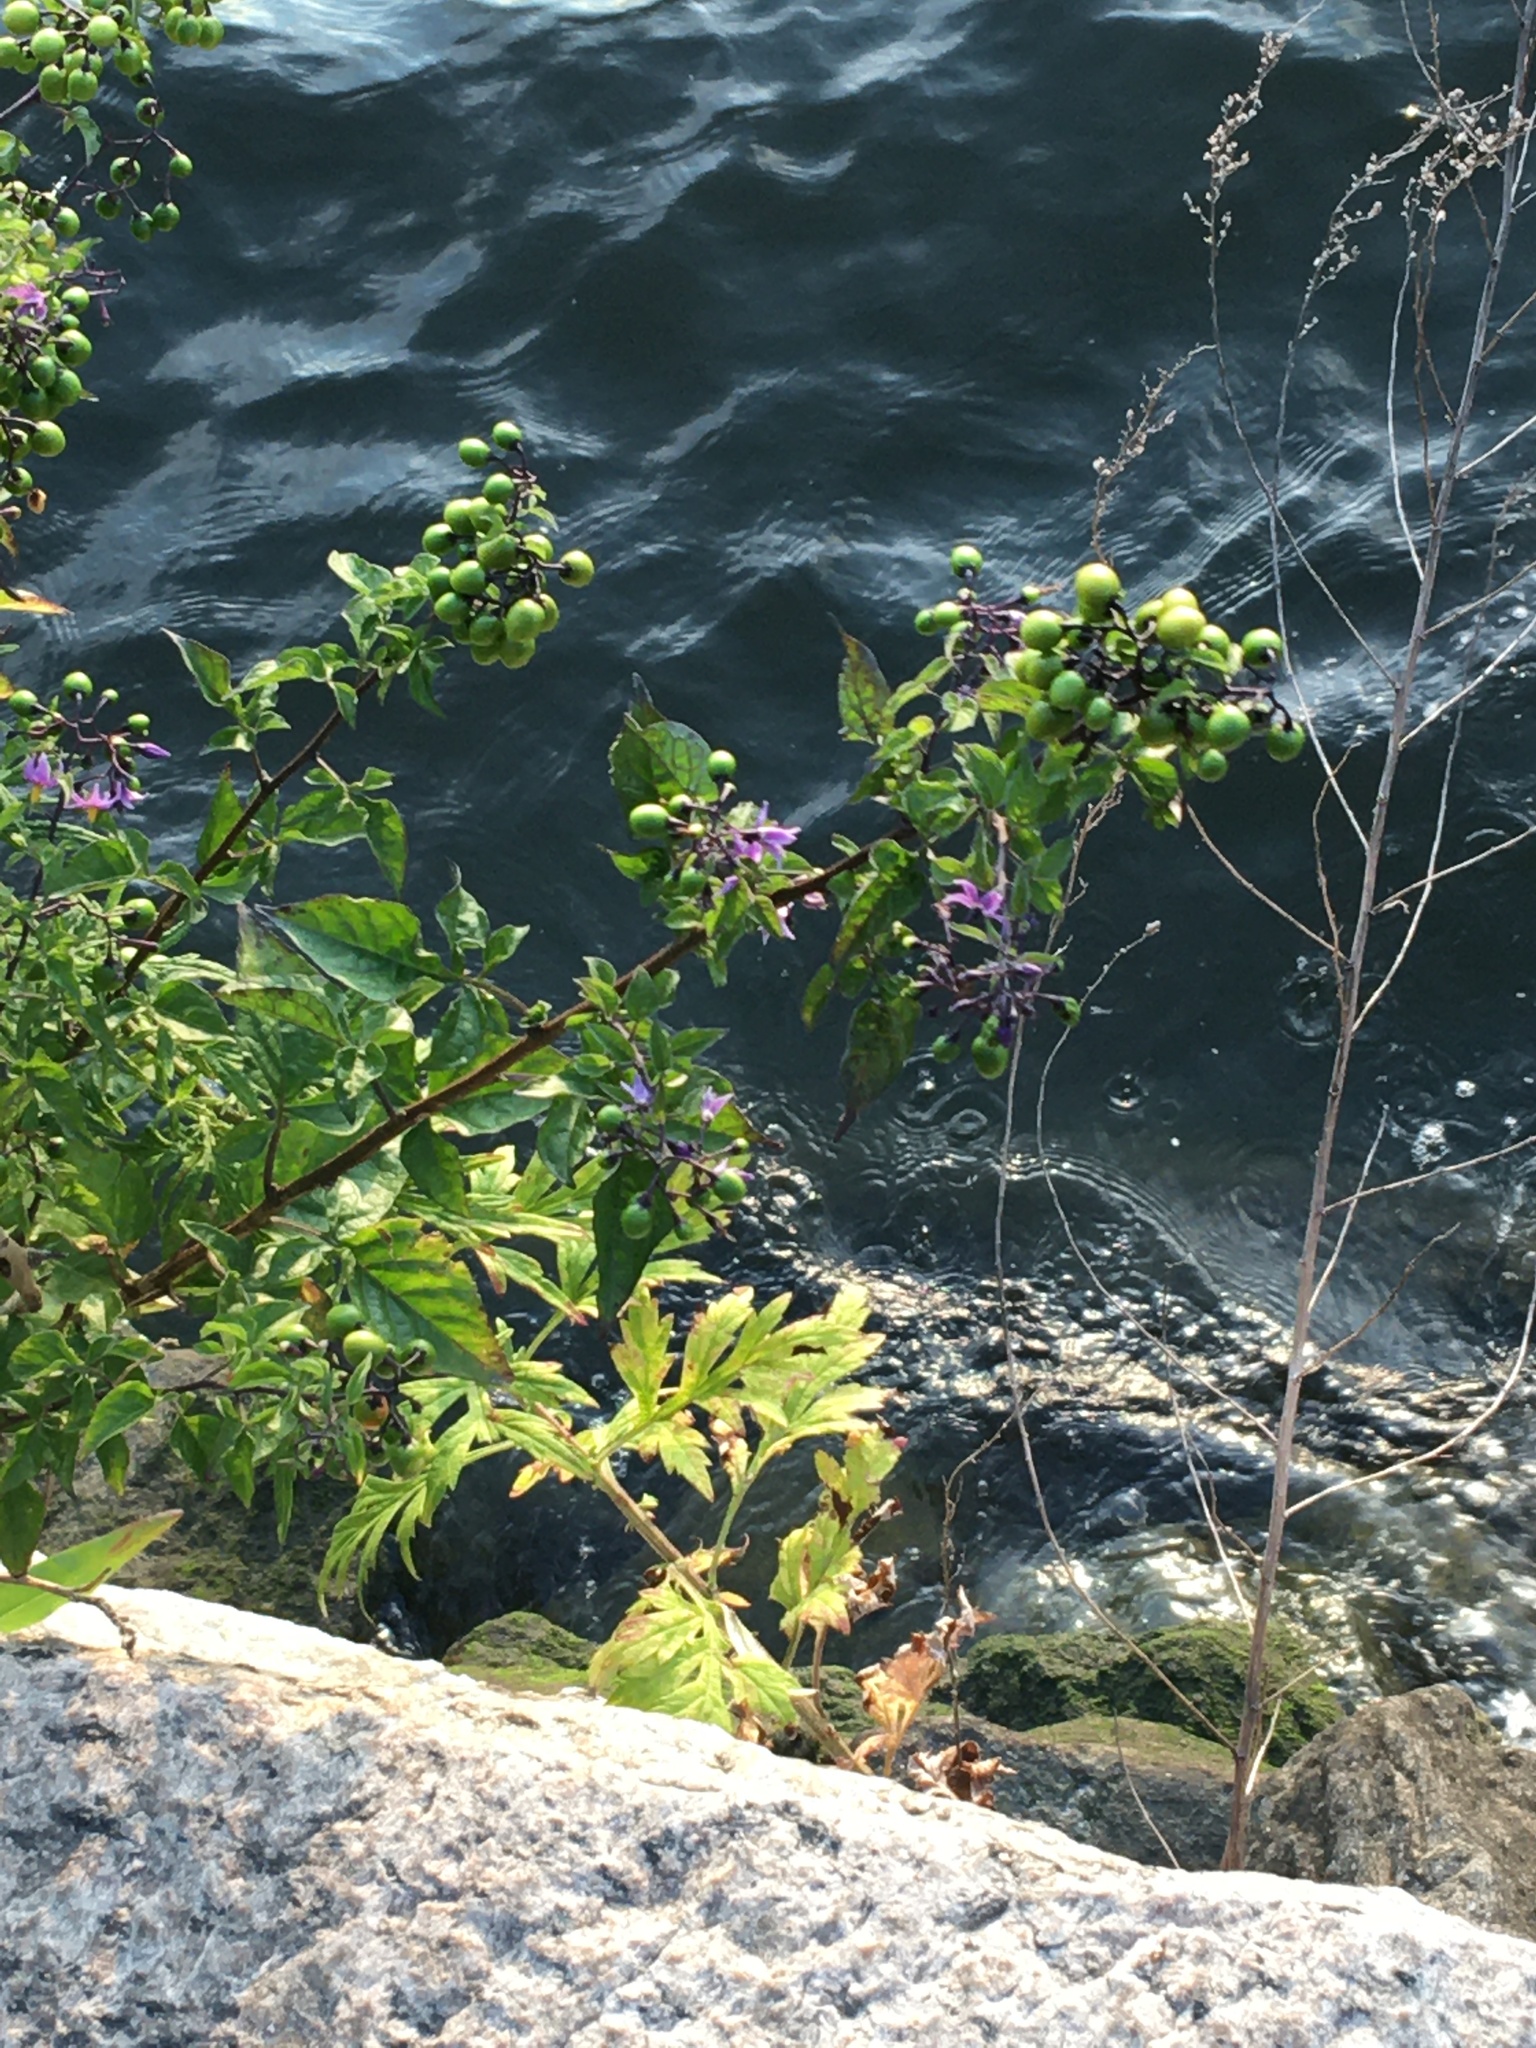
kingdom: Plantae
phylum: Tracheophyta
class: Magnoliopsida
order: Solanales
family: Solanaceae
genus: Solanum
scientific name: Solanum dulcamara
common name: Climbing nightshade
